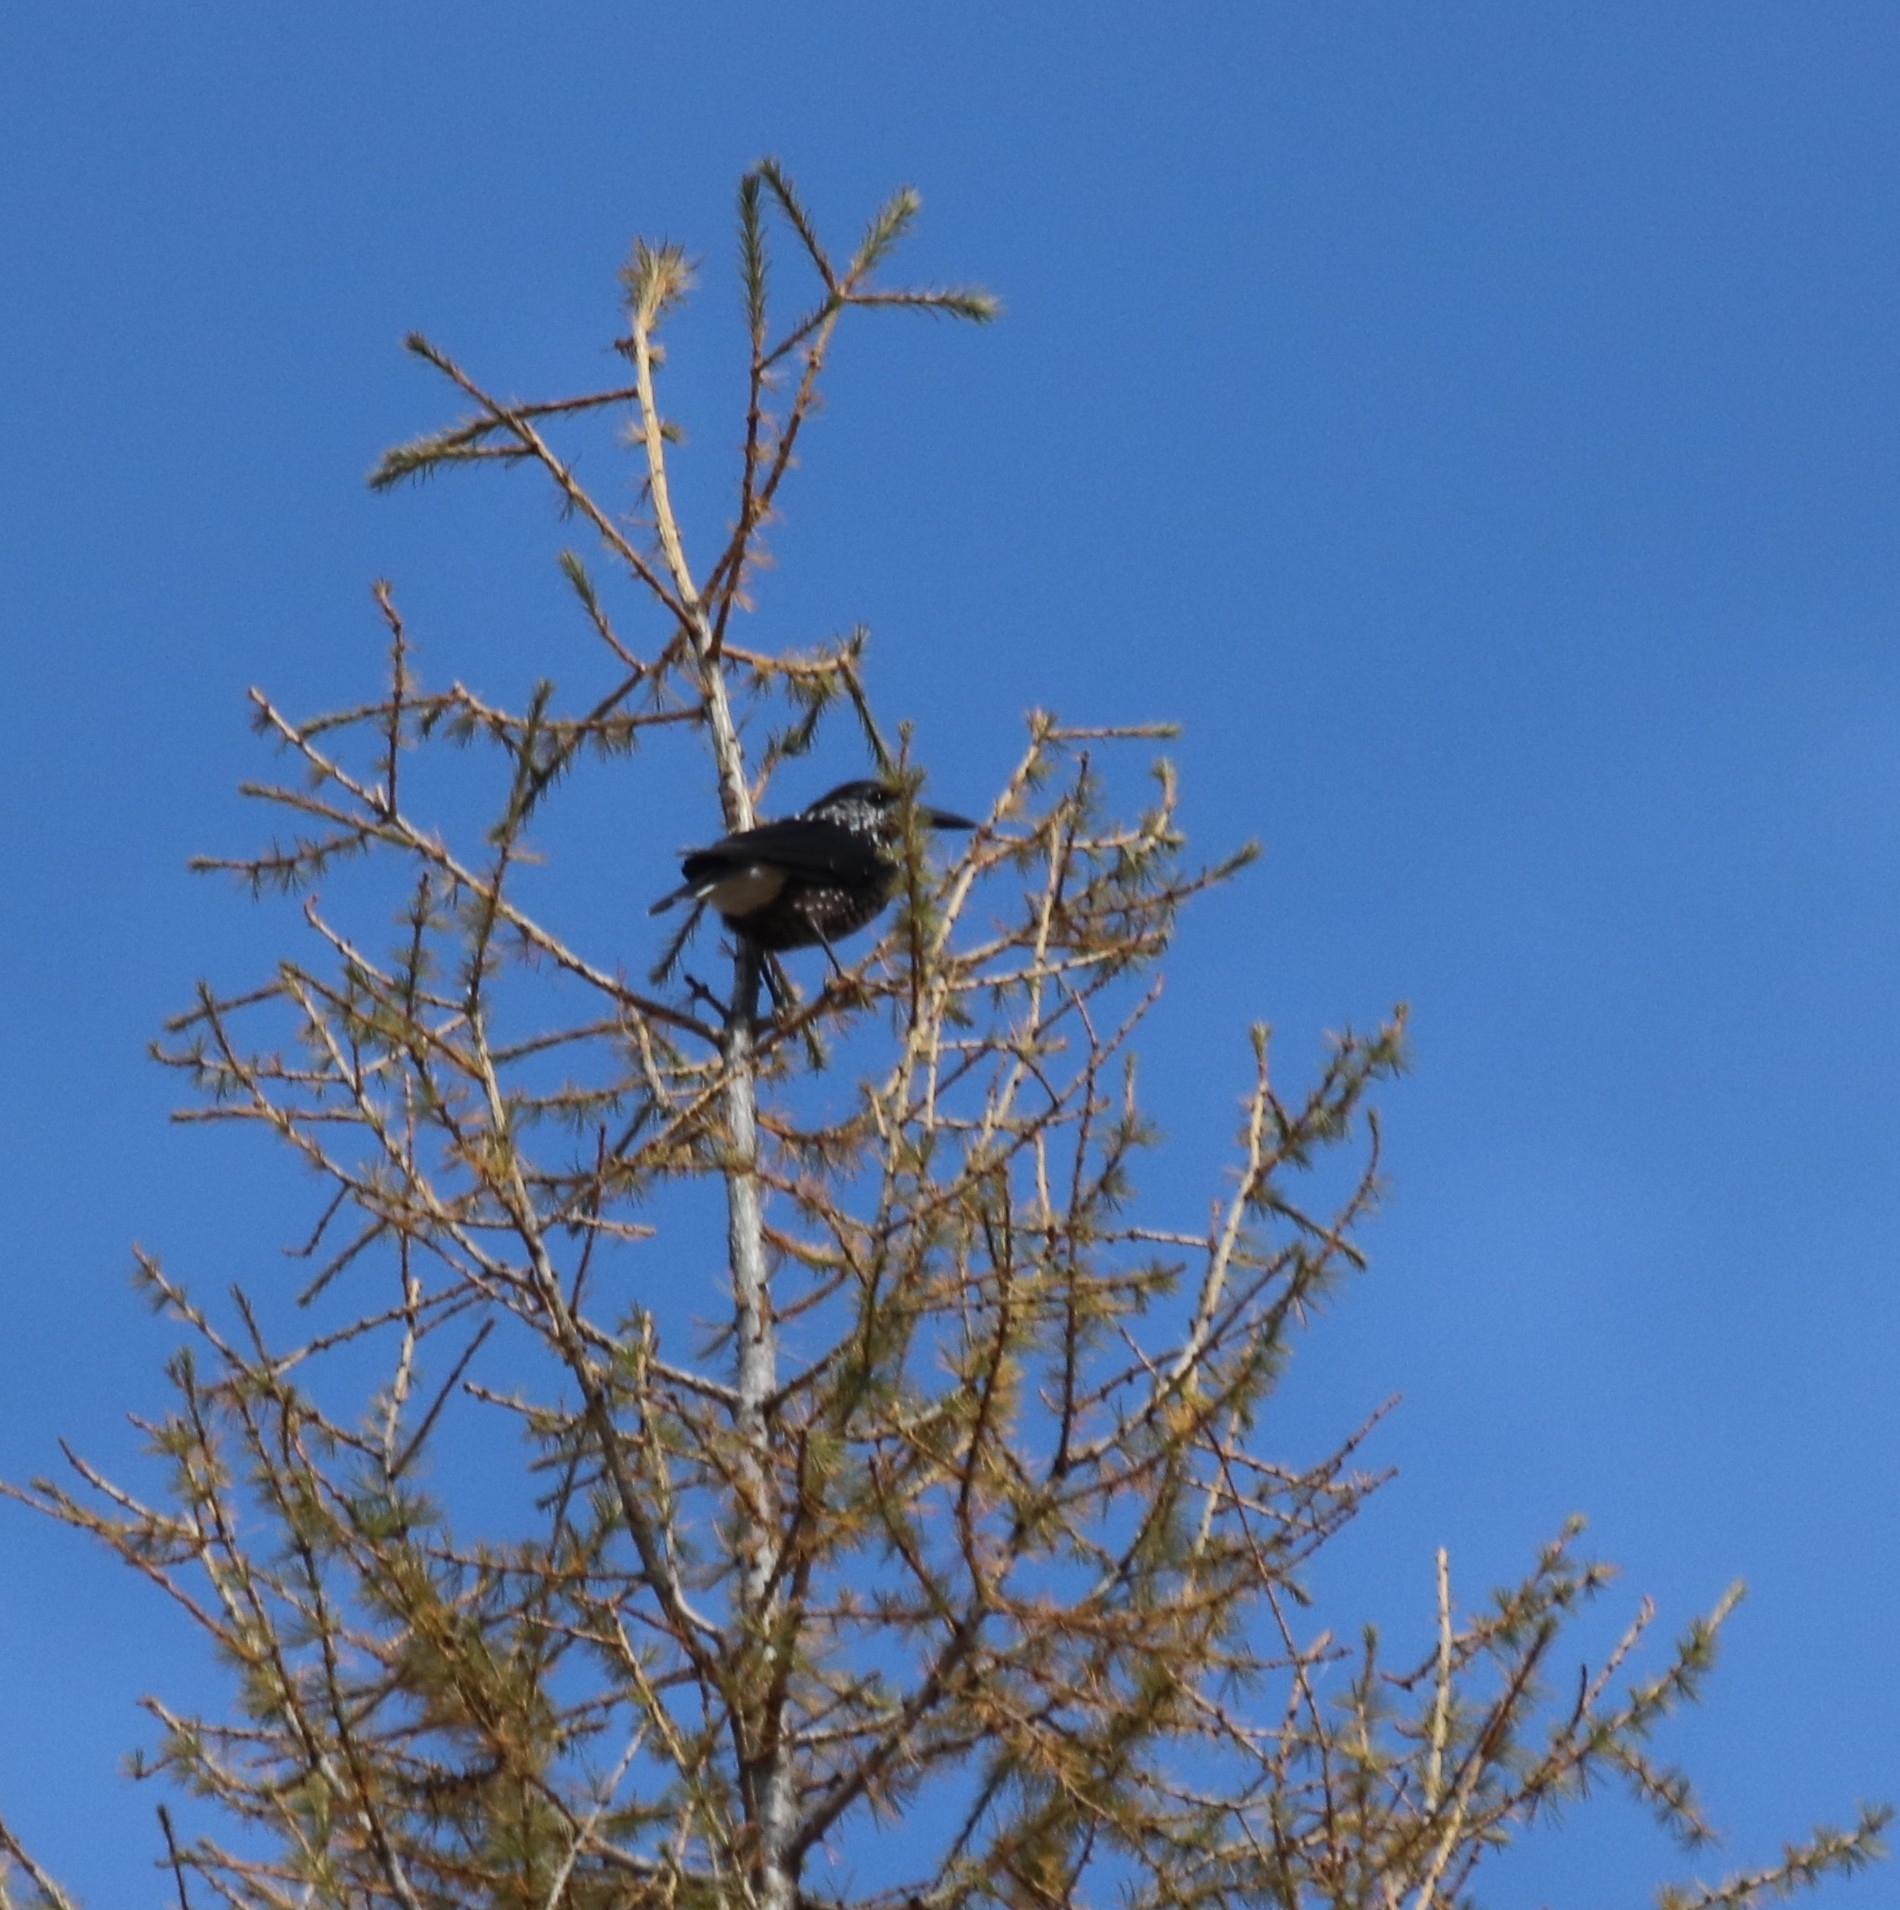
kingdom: Animalia
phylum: Chordata
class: Aves
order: Passeriformes
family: Corvidae
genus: Nucifraga
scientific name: Nucifraga caryocatactes
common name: Spotted nutcracker
